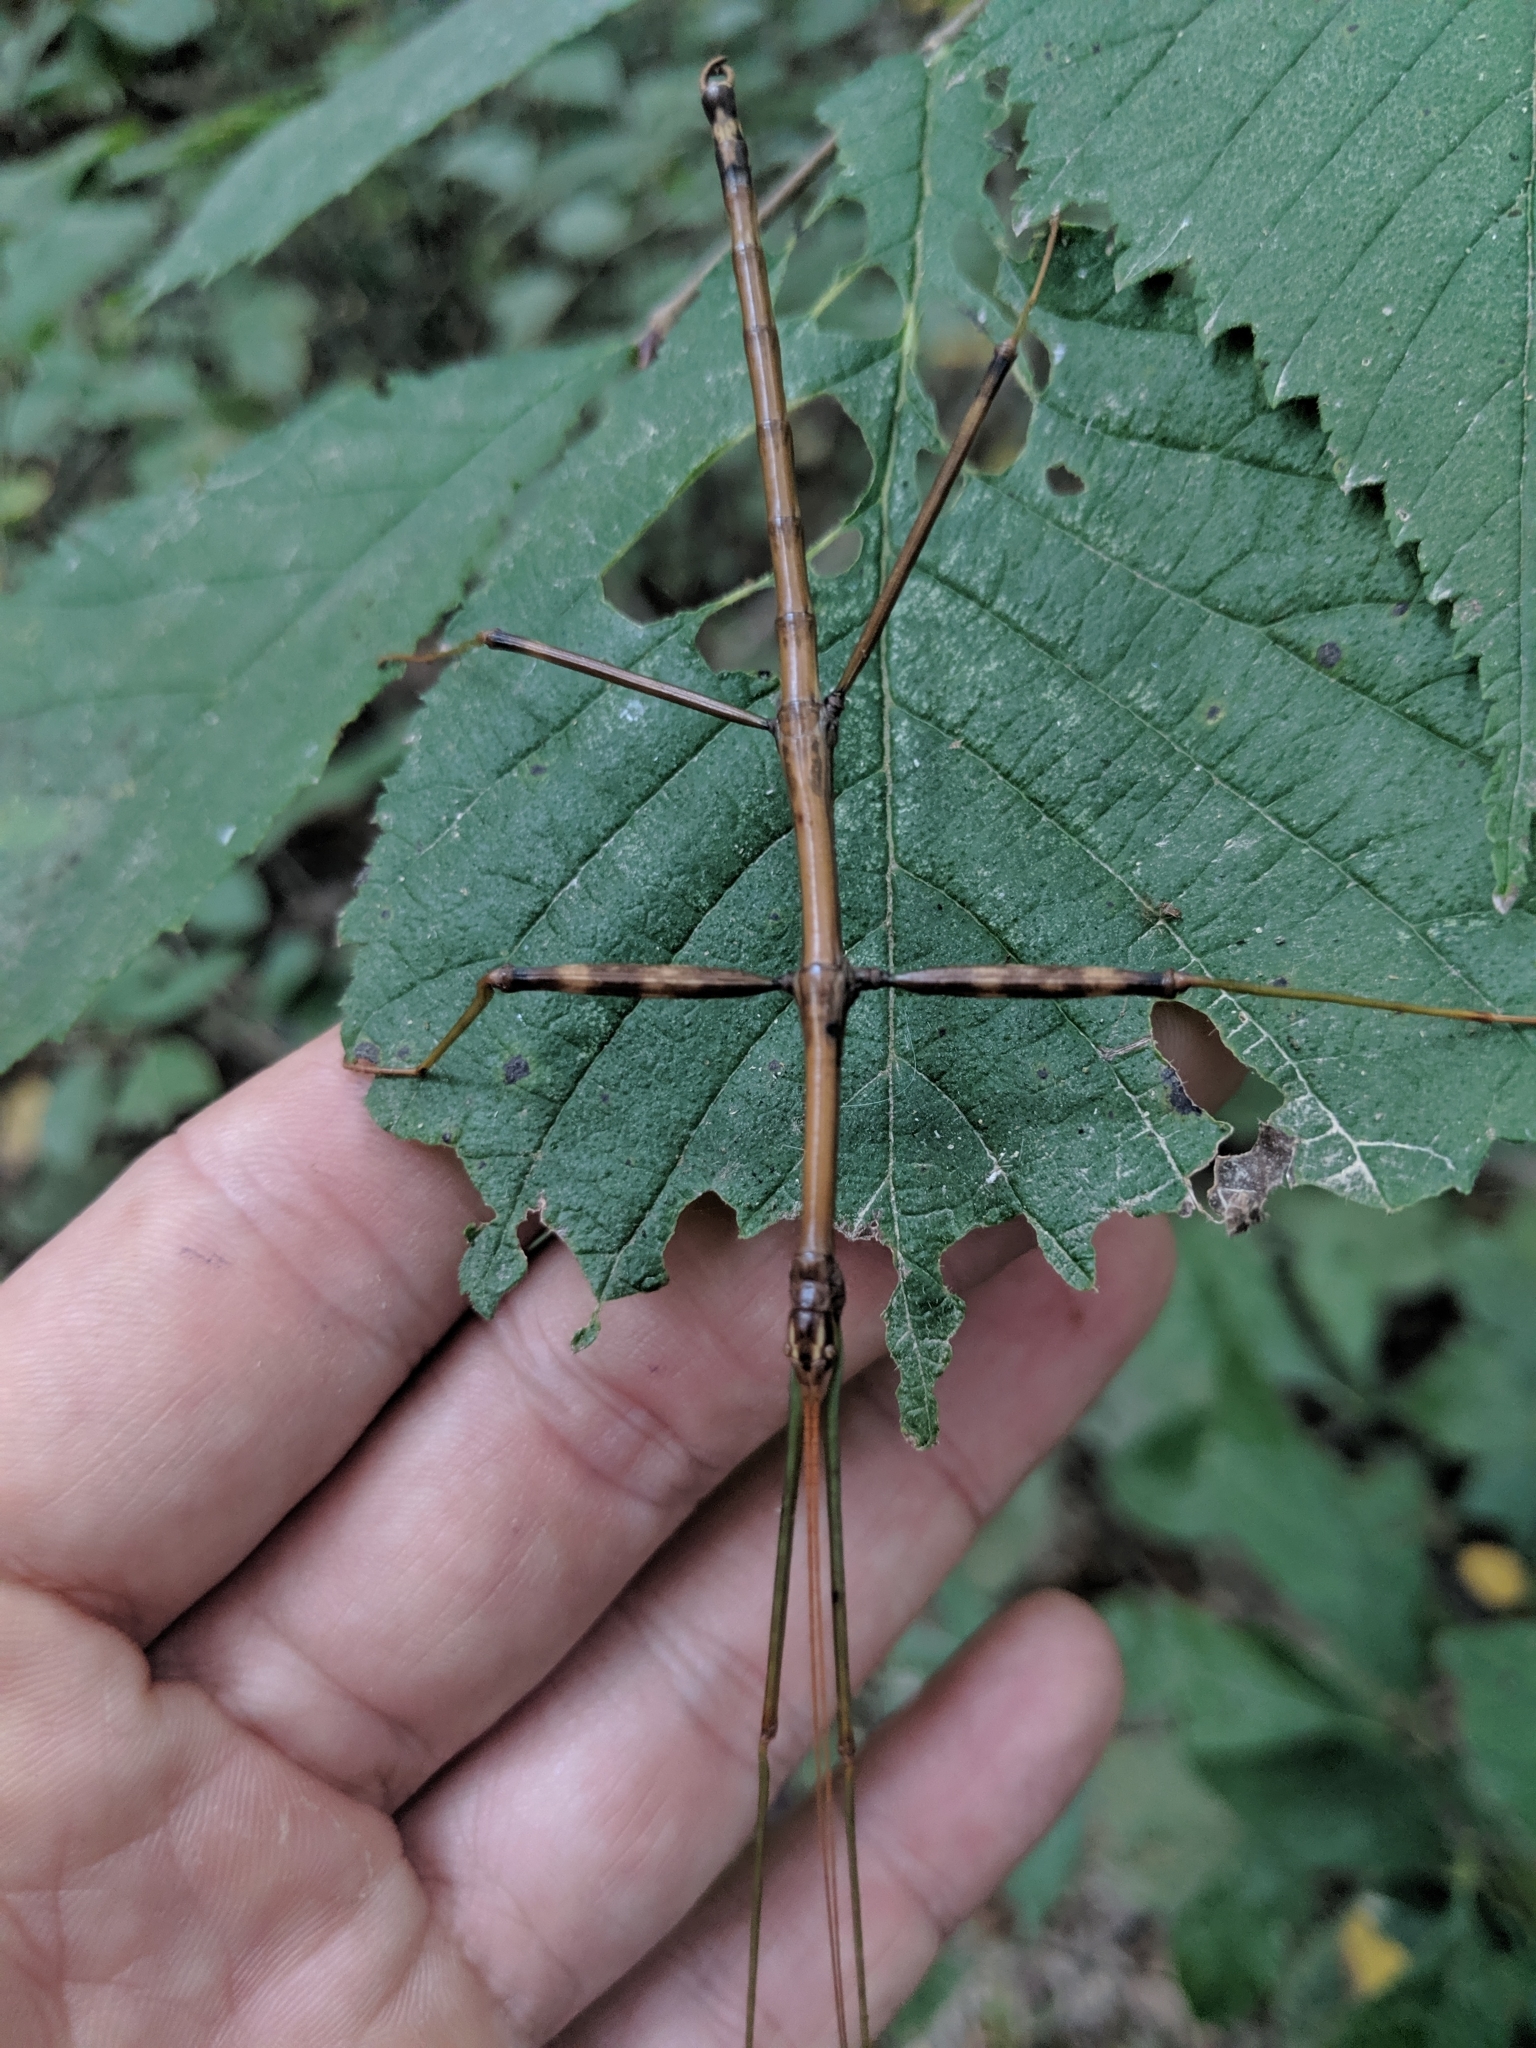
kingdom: Animalia
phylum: Arthropoda
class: Insecta
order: Phasmida
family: Diapheromeridae
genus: Diapheromera
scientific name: Diapheromera femorata
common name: Common american walkingstick
